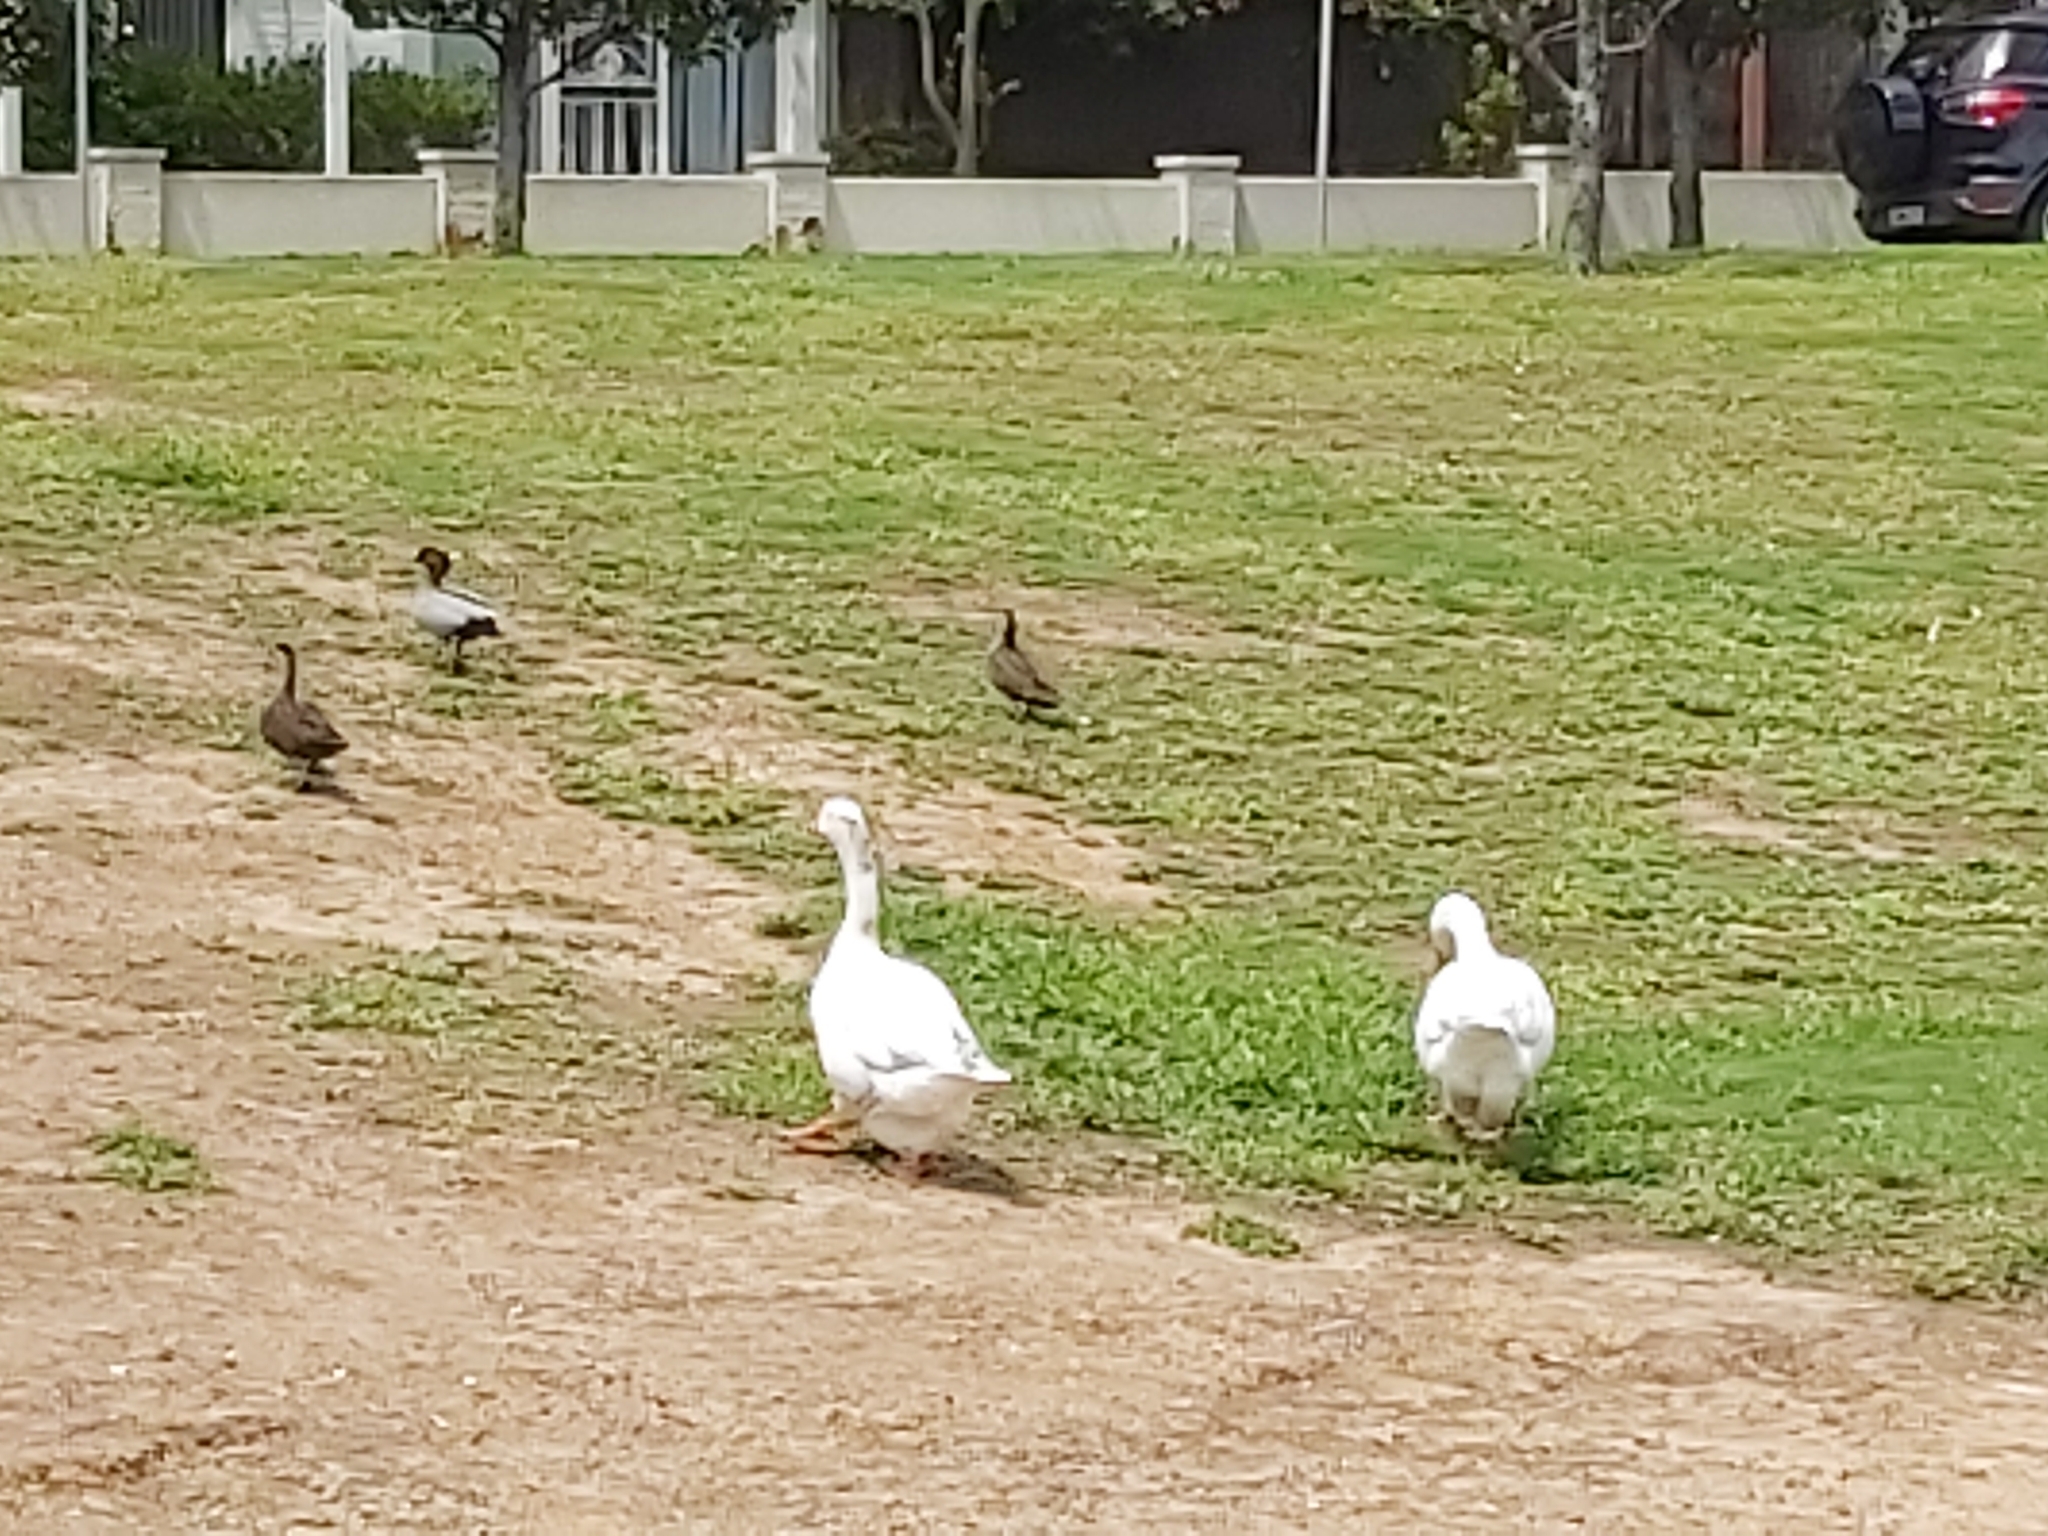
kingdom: Animalia
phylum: Chordata
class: Aves
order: Anseriformes
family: Anatidae
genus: Anser
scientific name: Anser cygnoides
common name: Swan goose
